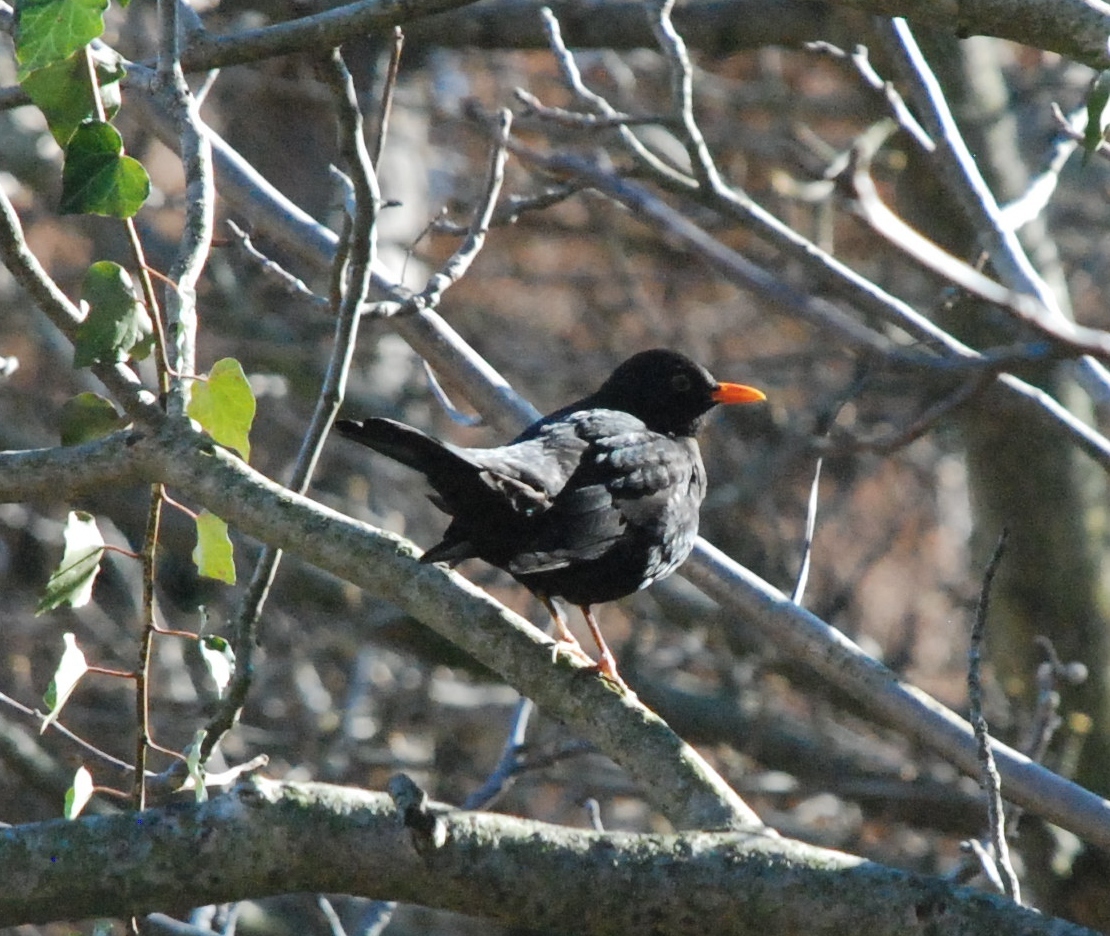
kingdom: Animalia
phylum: Chordata
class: Aves
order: Passeriformes
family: Turdidae
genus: Turdus
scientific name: Turdus merula
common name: Common blackbird
